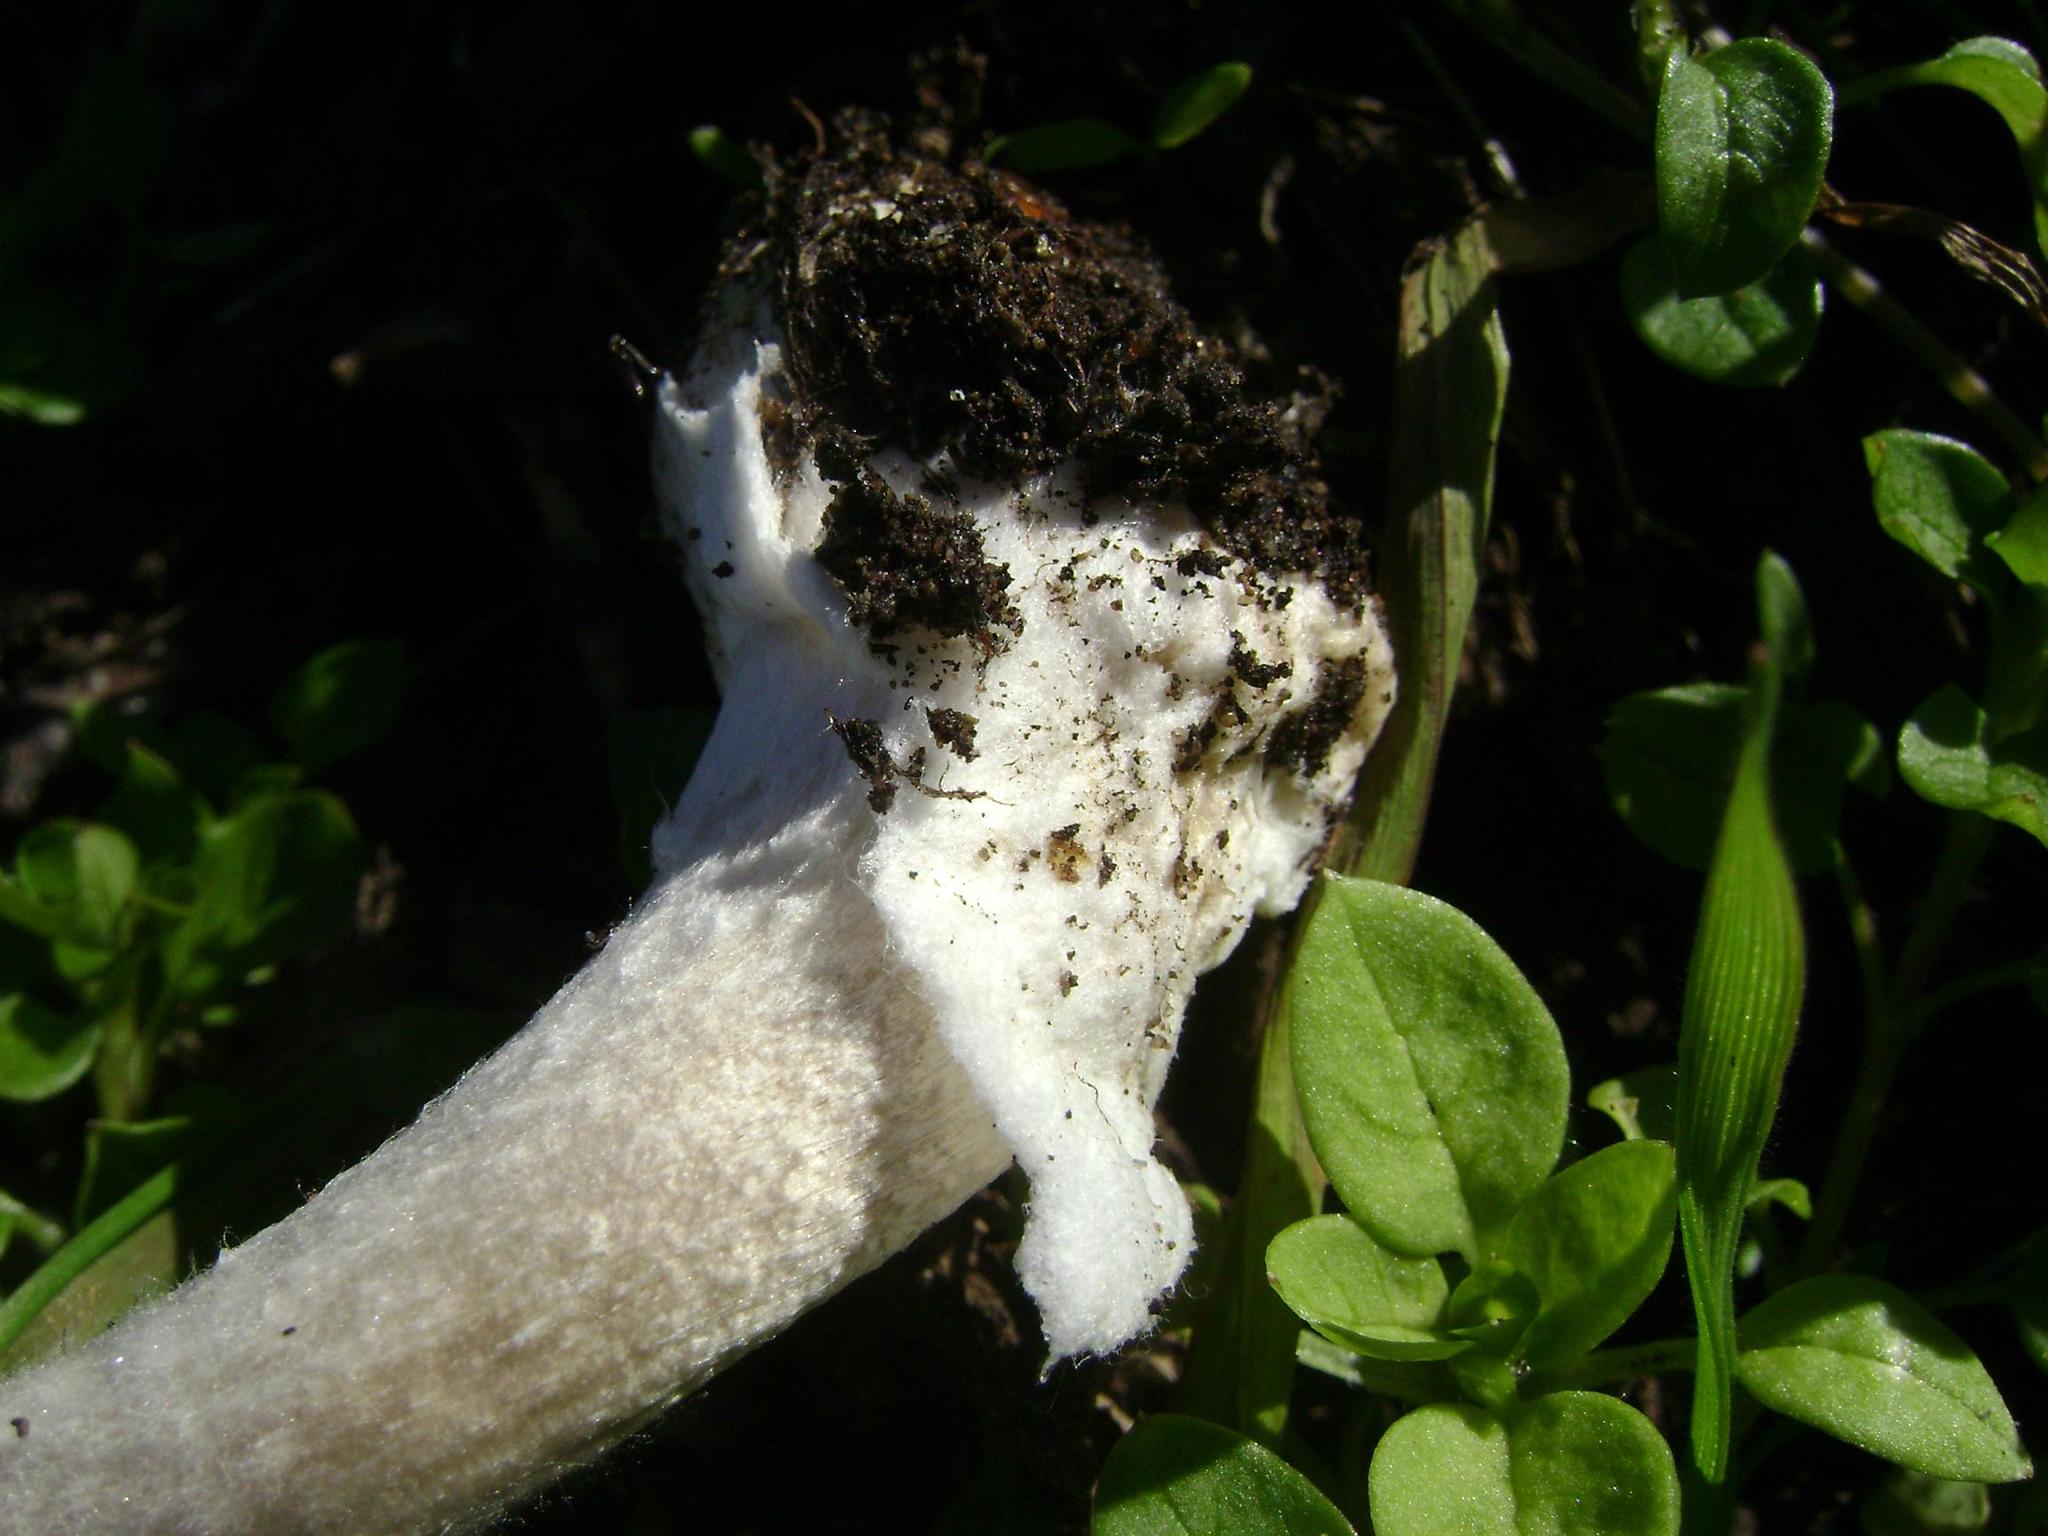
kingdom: Fungi
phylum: Basidiomycota
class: Agaricomycetes
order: Agaricales
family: Pluteaceae
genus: Volvopluteus
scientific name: Volvopluteus gloiocephalus
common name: Stubble rosegill
